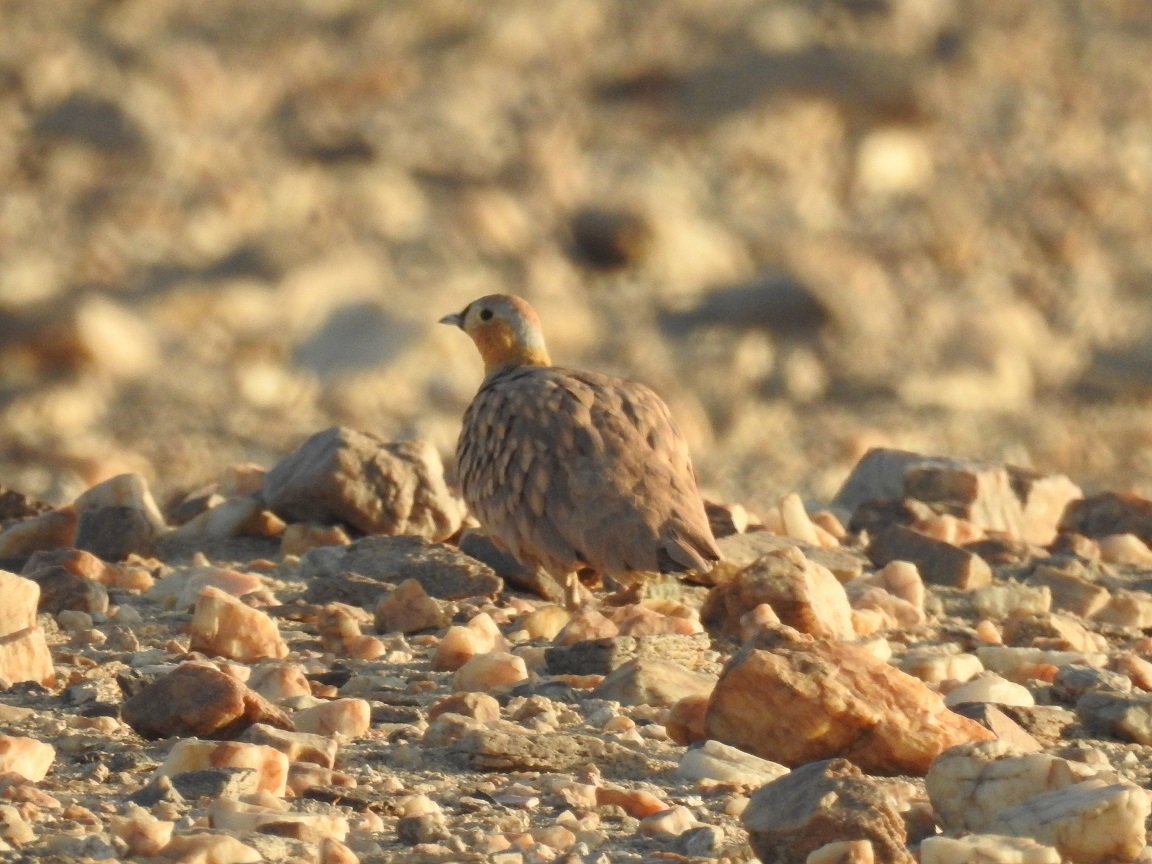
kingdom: Animalia
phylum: Chordata
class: Aves
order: Pteroclidiformes
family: Pteroclididae
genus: Pterocles
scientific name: Pterocles coronatus
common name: Crowned sandgrouse
